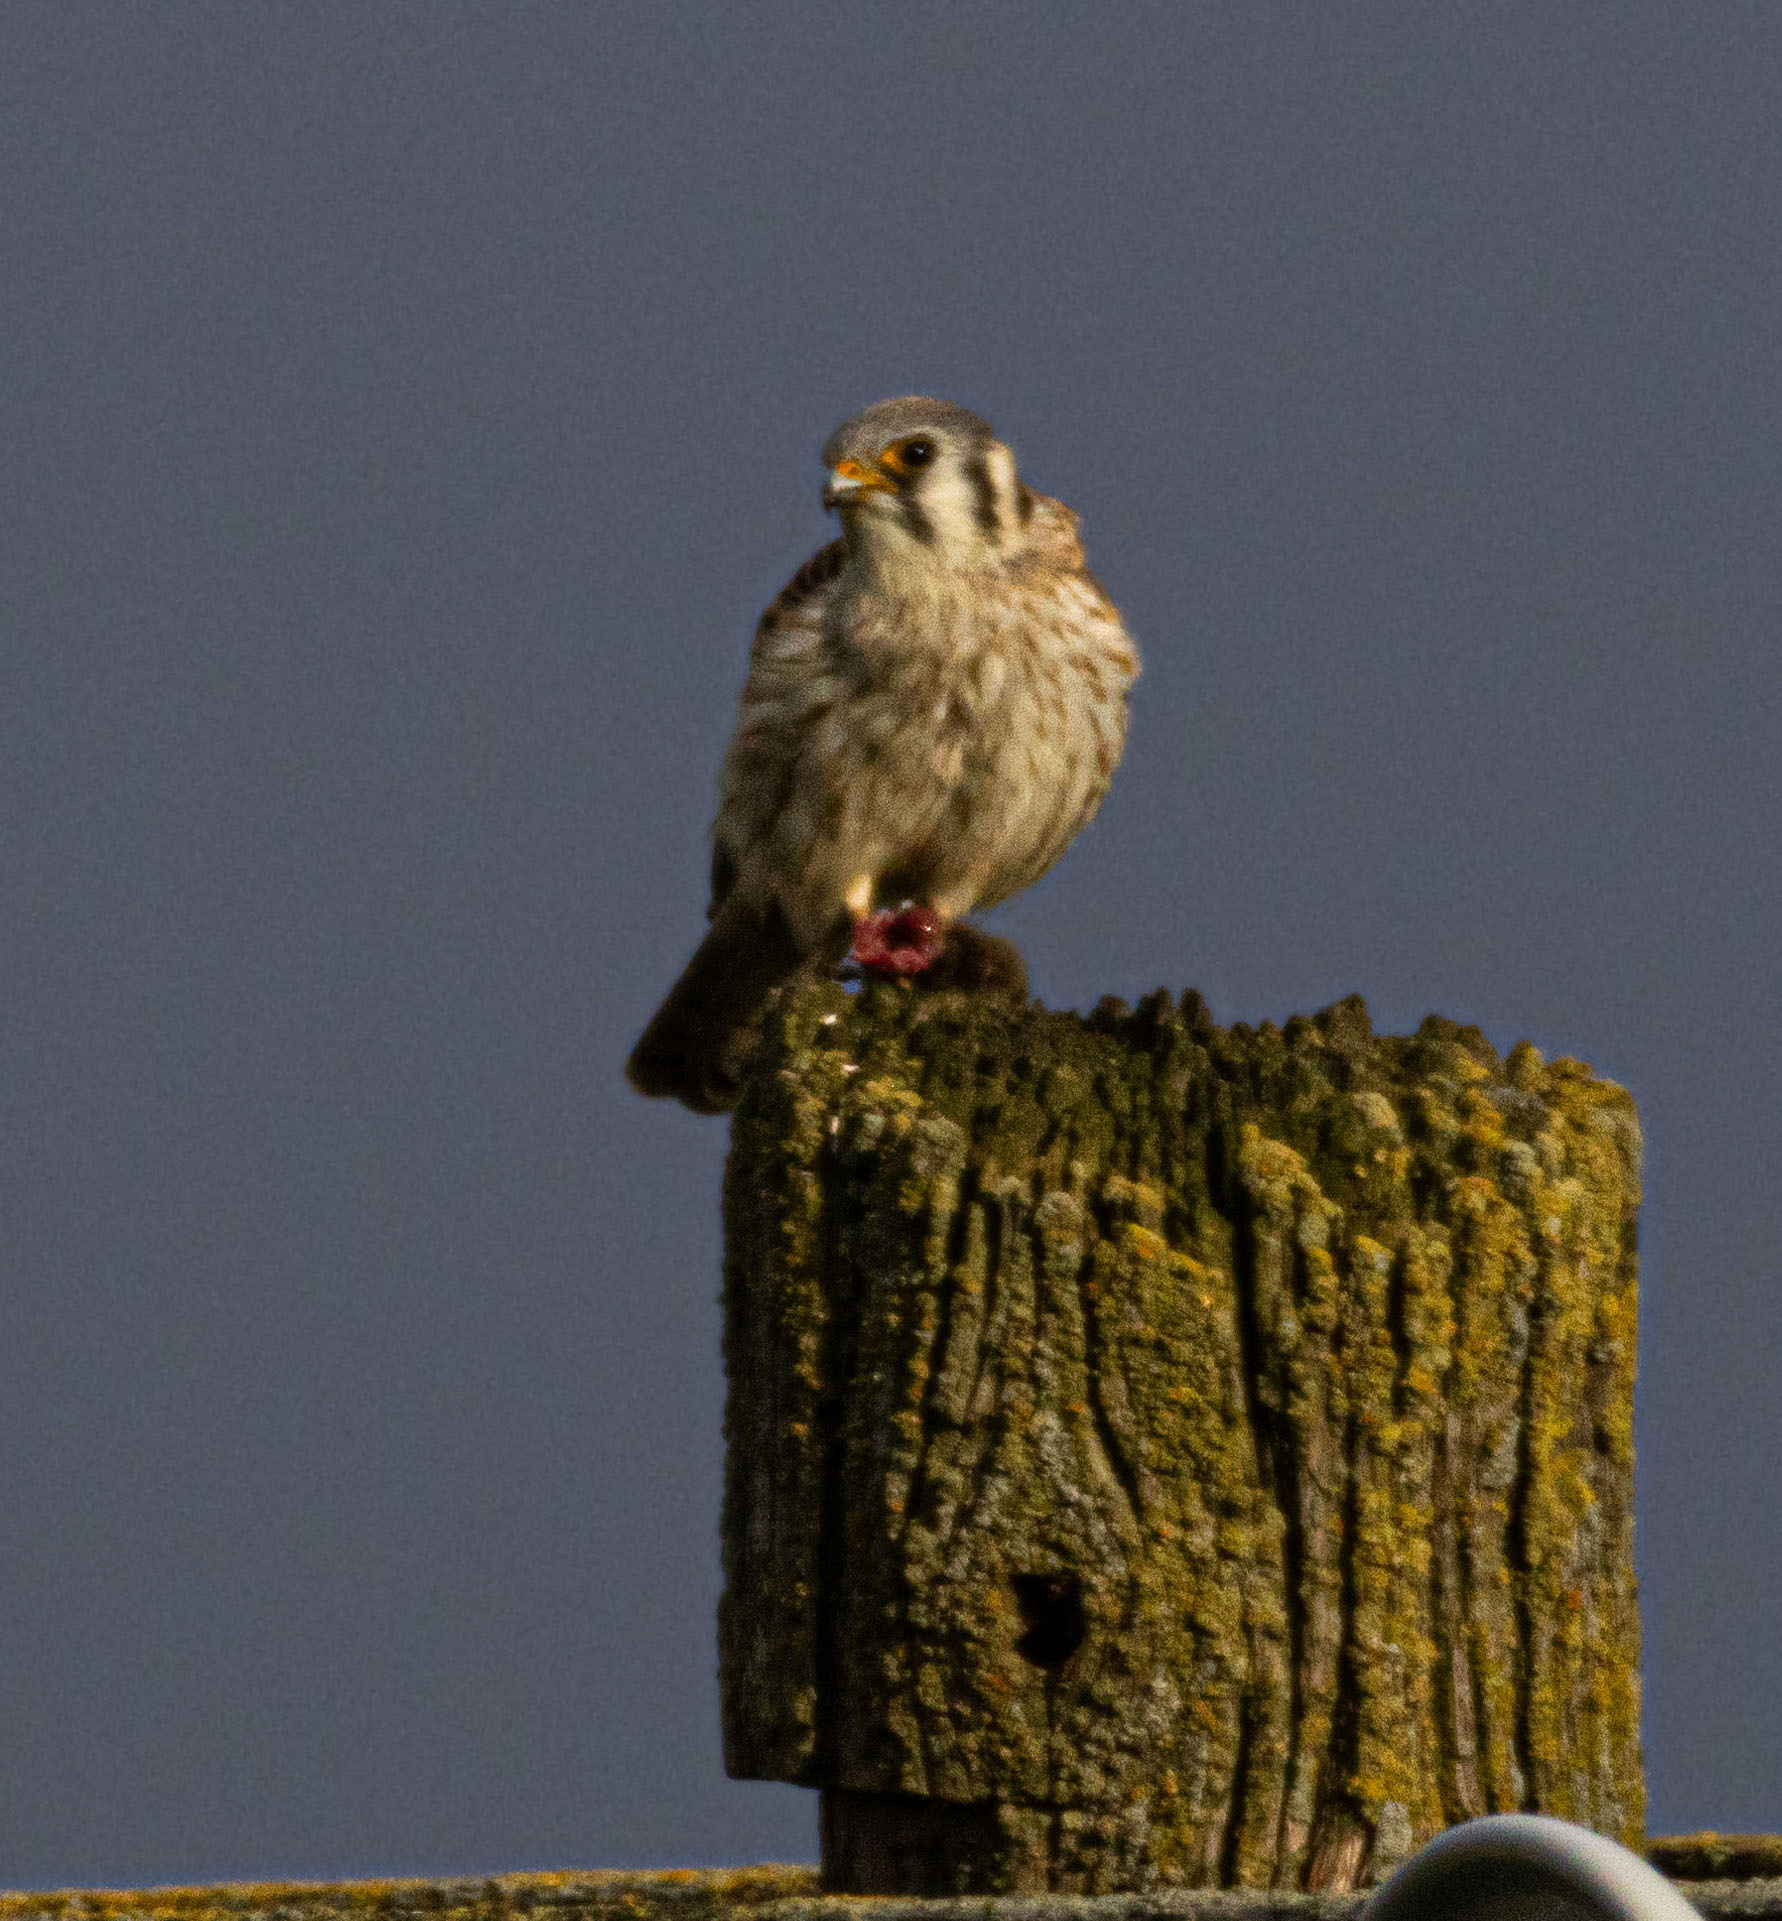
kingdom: Animalia
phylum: Chordata
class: Aves
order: Falconiformes
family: Falconidae
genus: Falco
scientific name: Falco sparverius
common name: American kestrel
